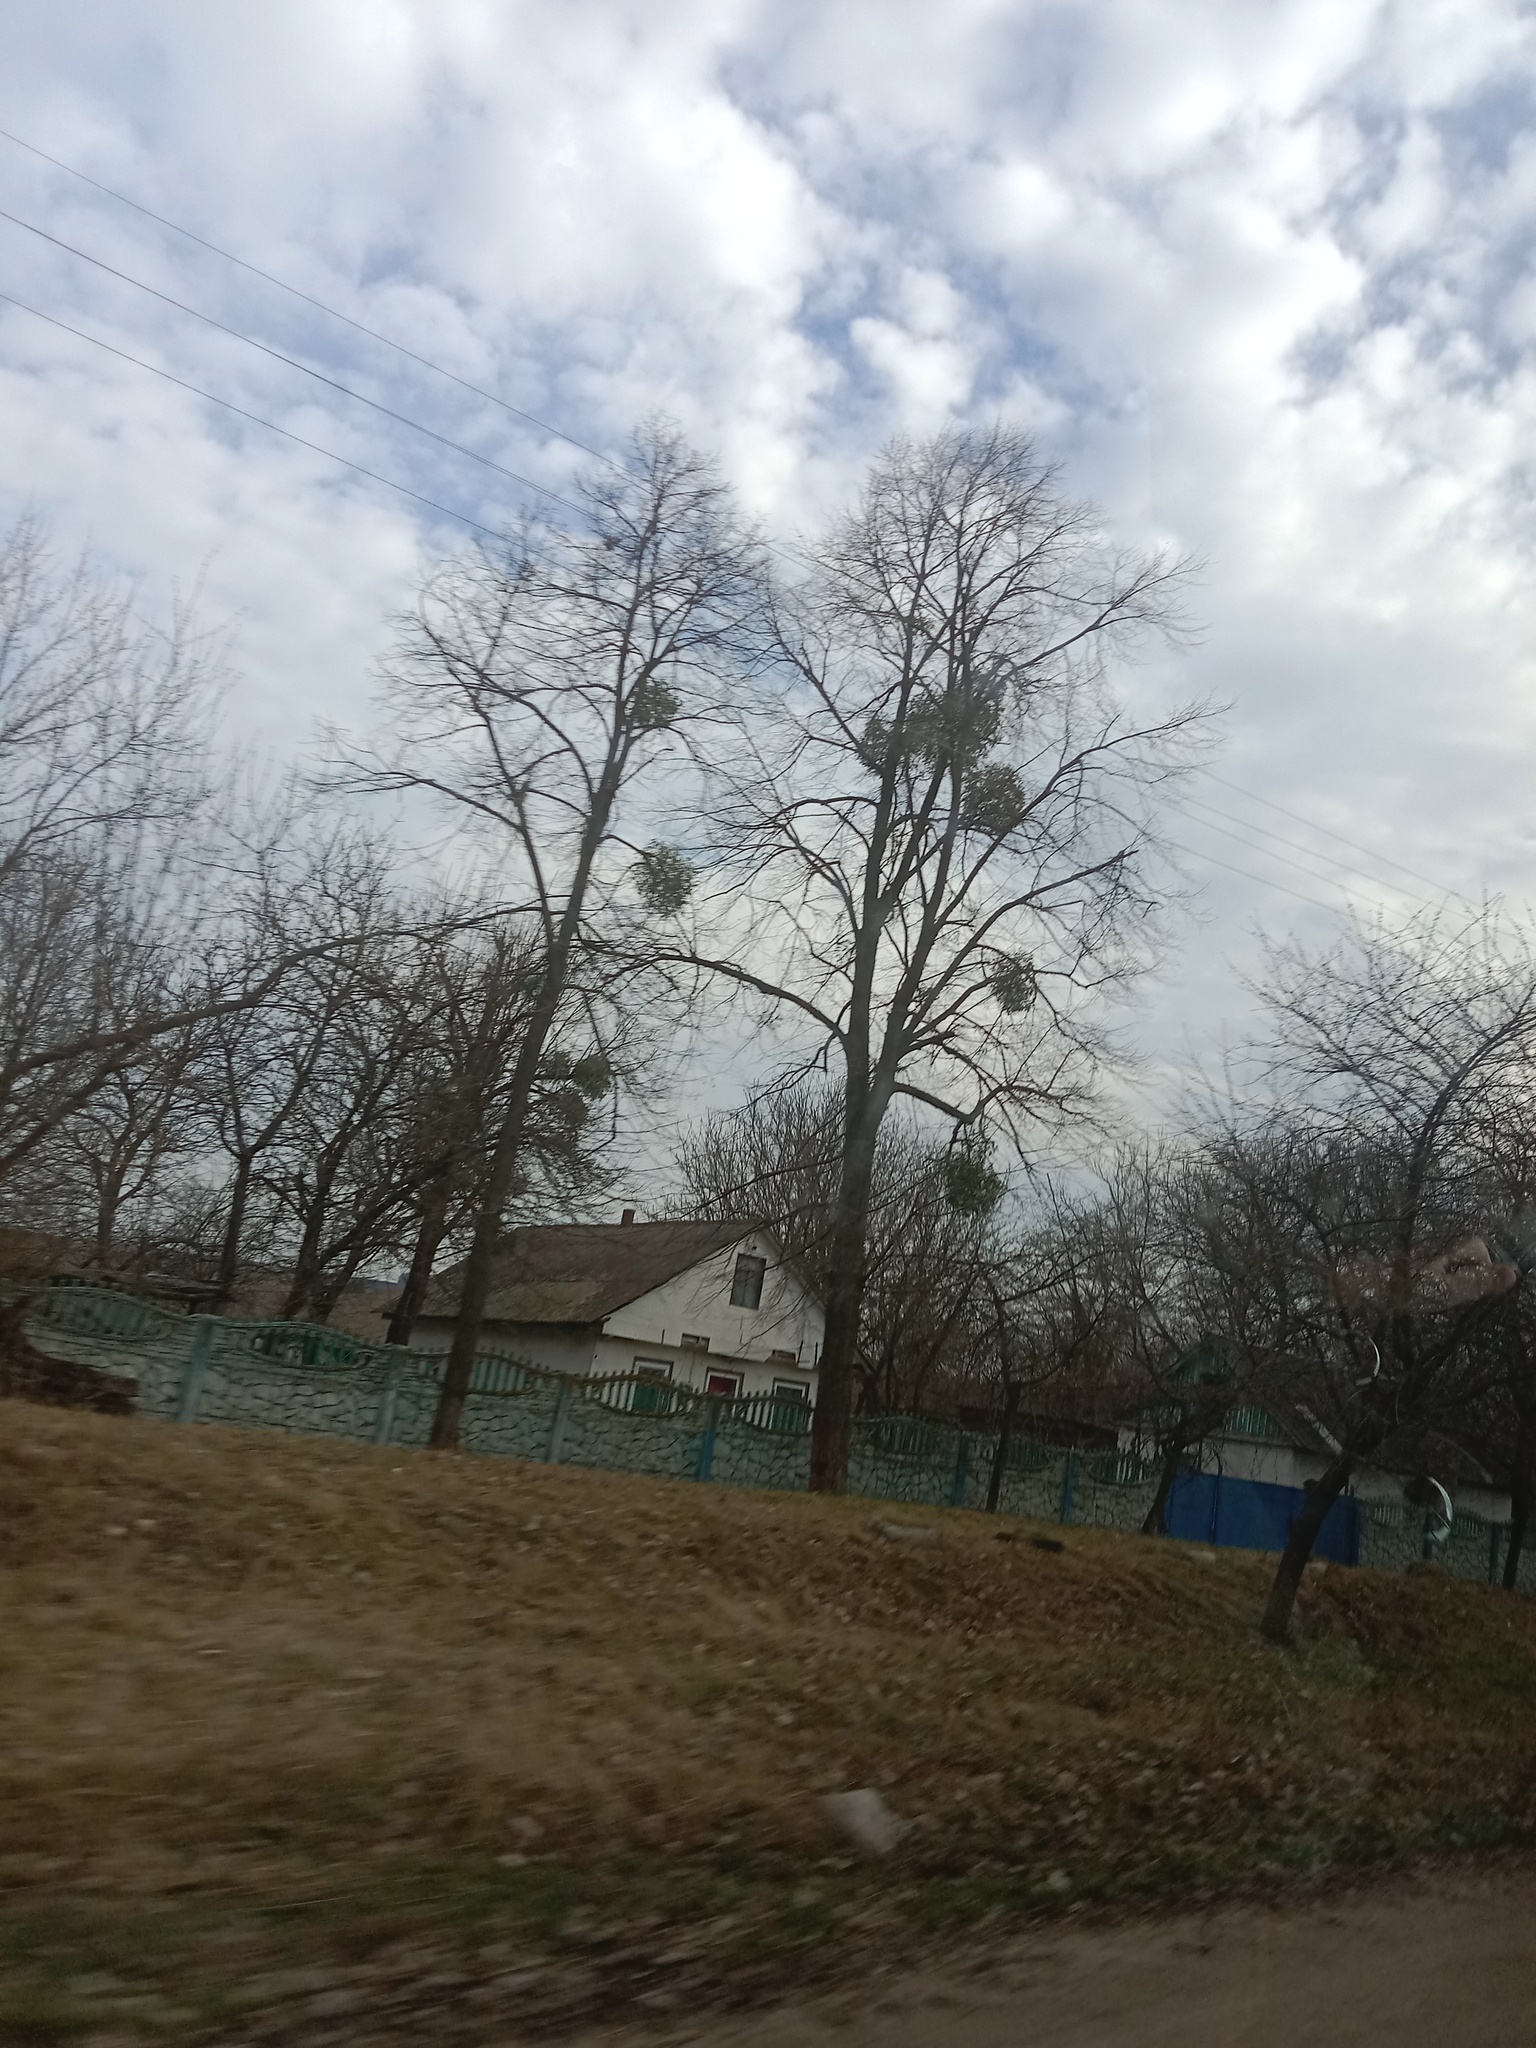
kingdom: Plantae
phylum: Tracheophyta
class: Magnoliopsida
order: Santalales
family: Viscaceae
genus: Viscum
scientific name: Viscum album
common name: Mistletoe
